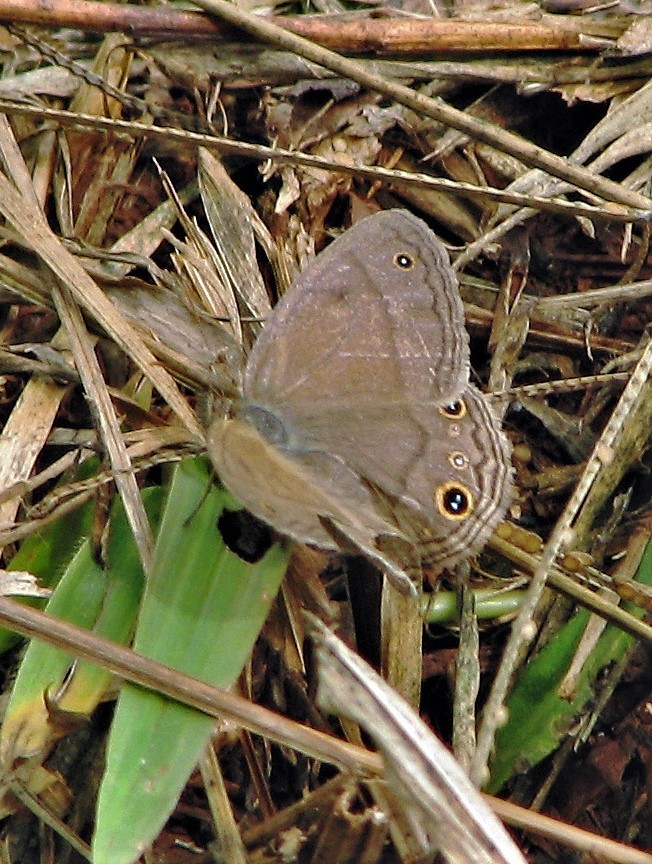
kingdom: Animalia
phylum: Arthropoda
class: Insecta
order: Lepidoptera
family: Nymphalidae
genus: Pharneuptychia
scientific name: Pharneuptychia phares
